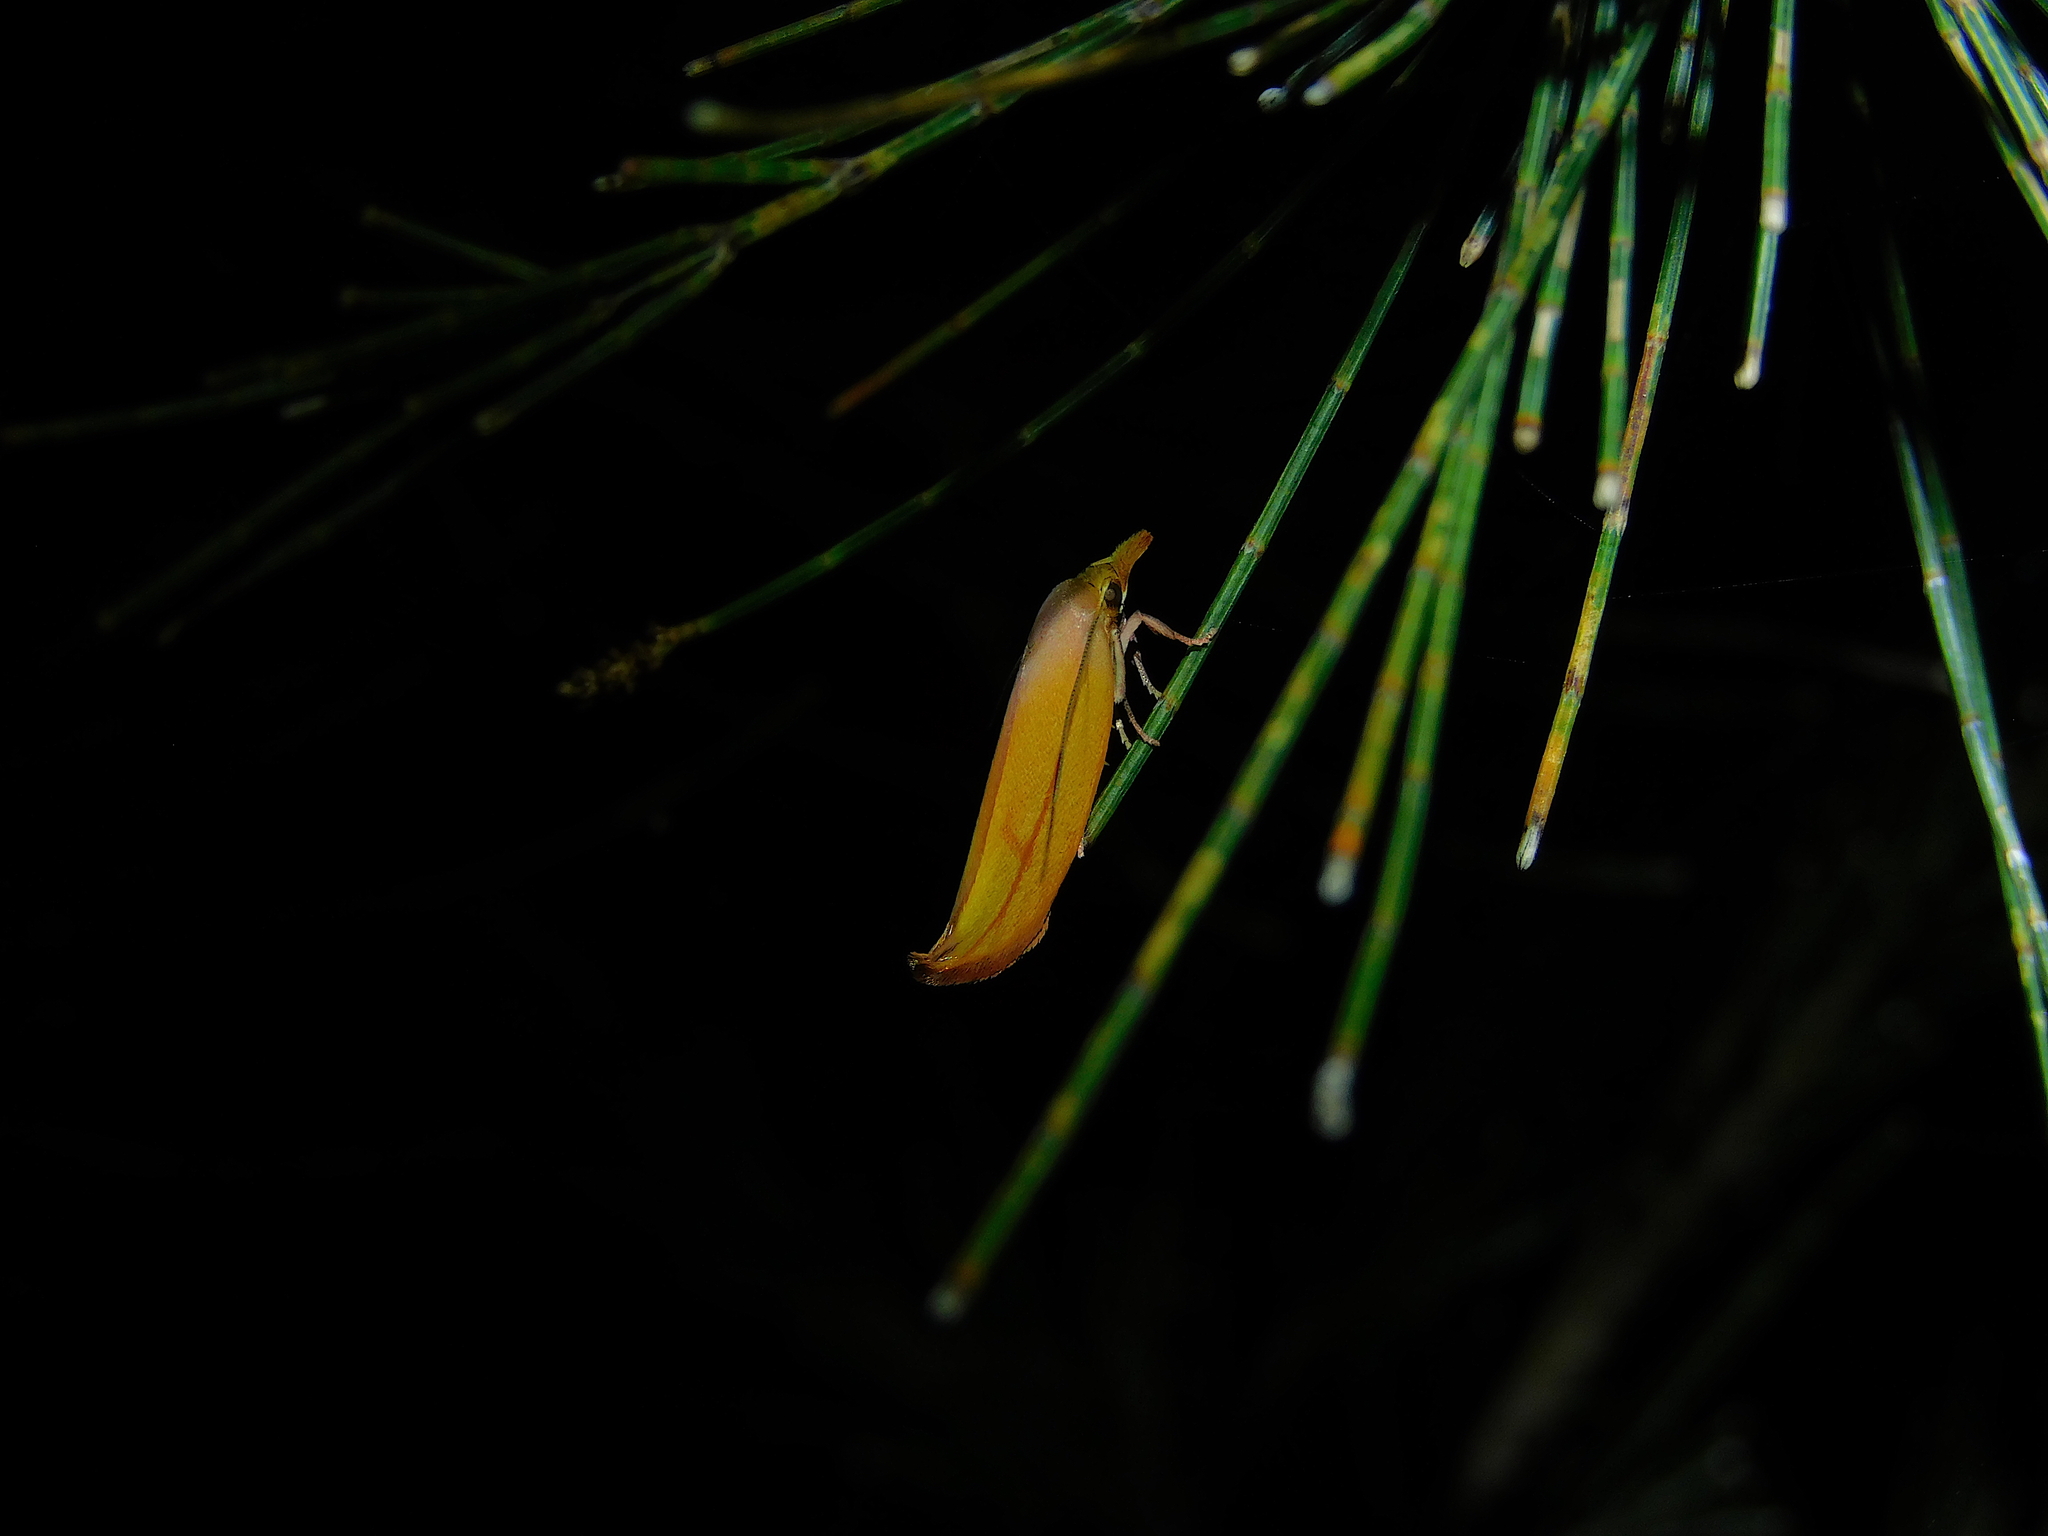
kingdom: Animalia
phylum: Arthropoda
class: Insecta
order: Lepidoptera
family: Oecophoridae
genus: Wingia
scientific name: Wingia aurata
